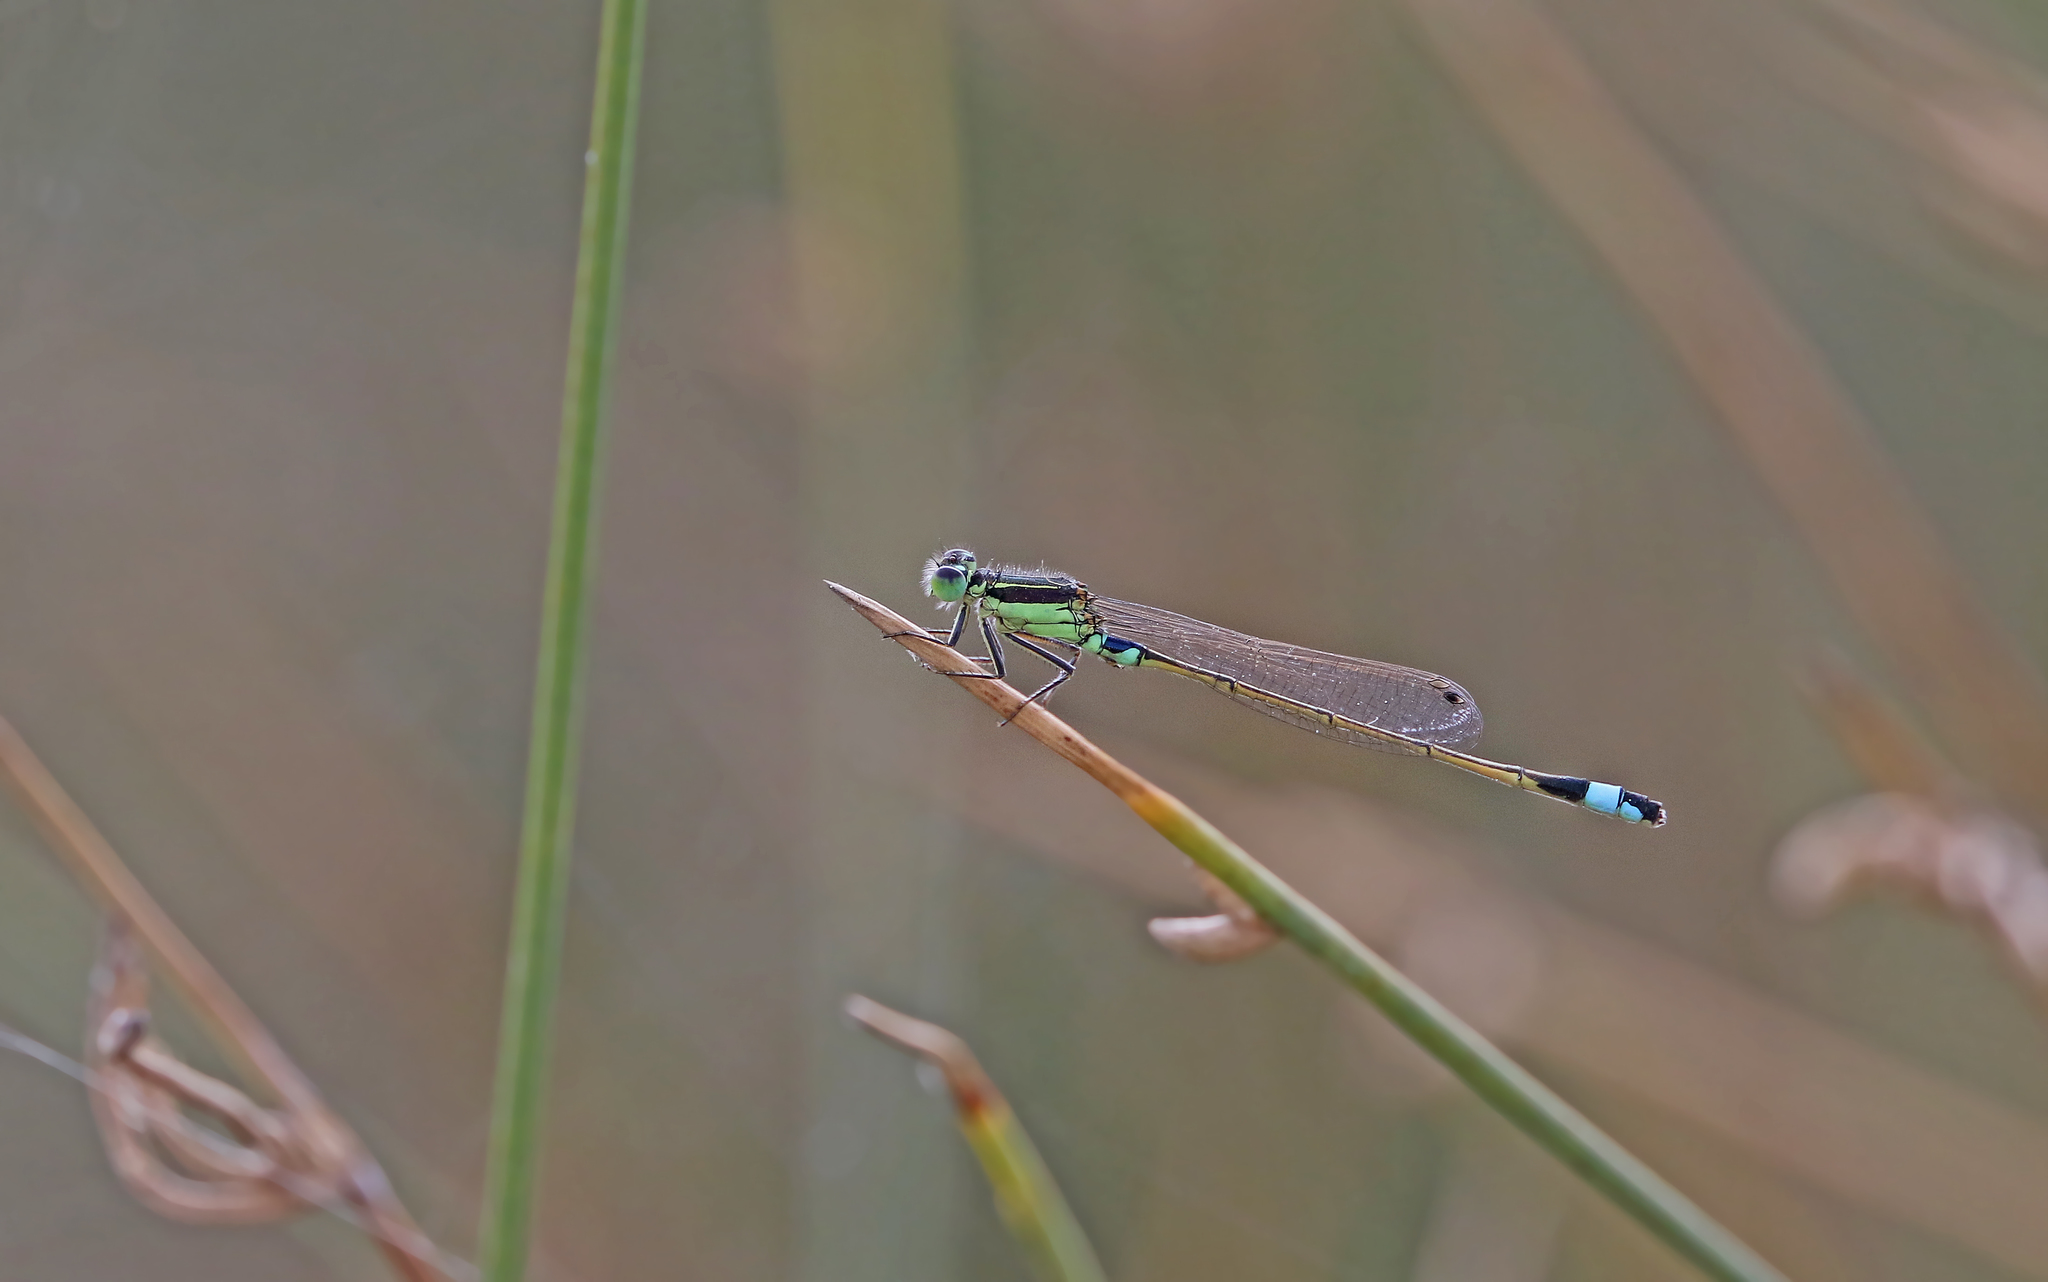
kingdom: Animalia
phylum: Arthropoda
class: Insecta
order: Odonata
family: Coenagrionidae
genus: Ischnura
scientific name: Ischnura senegalensis
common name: Tropical bluetail
